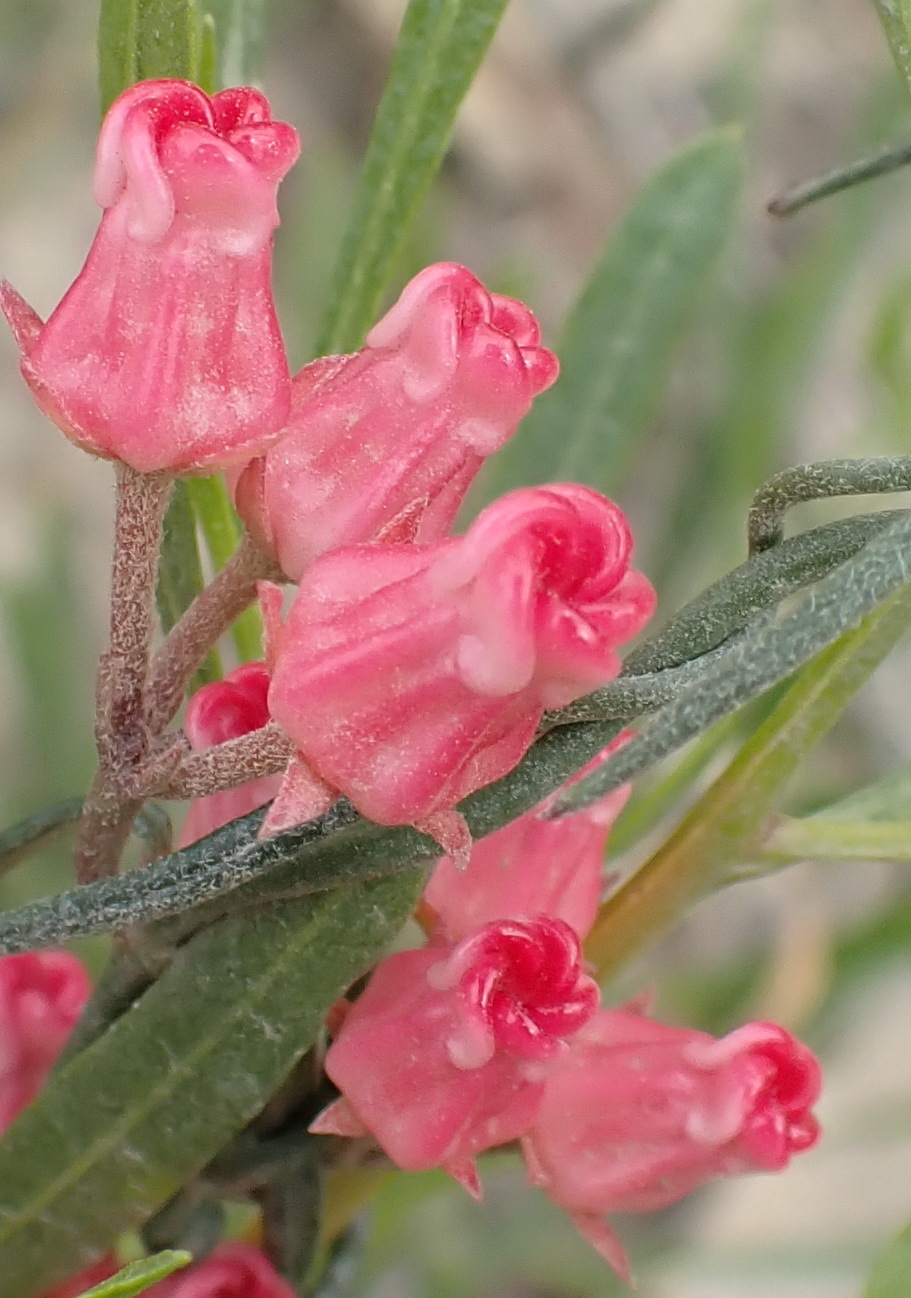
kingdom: Plantae
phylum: Tracheophyta
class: Magnoliopsida
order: Gentianales
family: Apocynaceae
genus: Microloma
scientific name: Microloma tenuifolium
